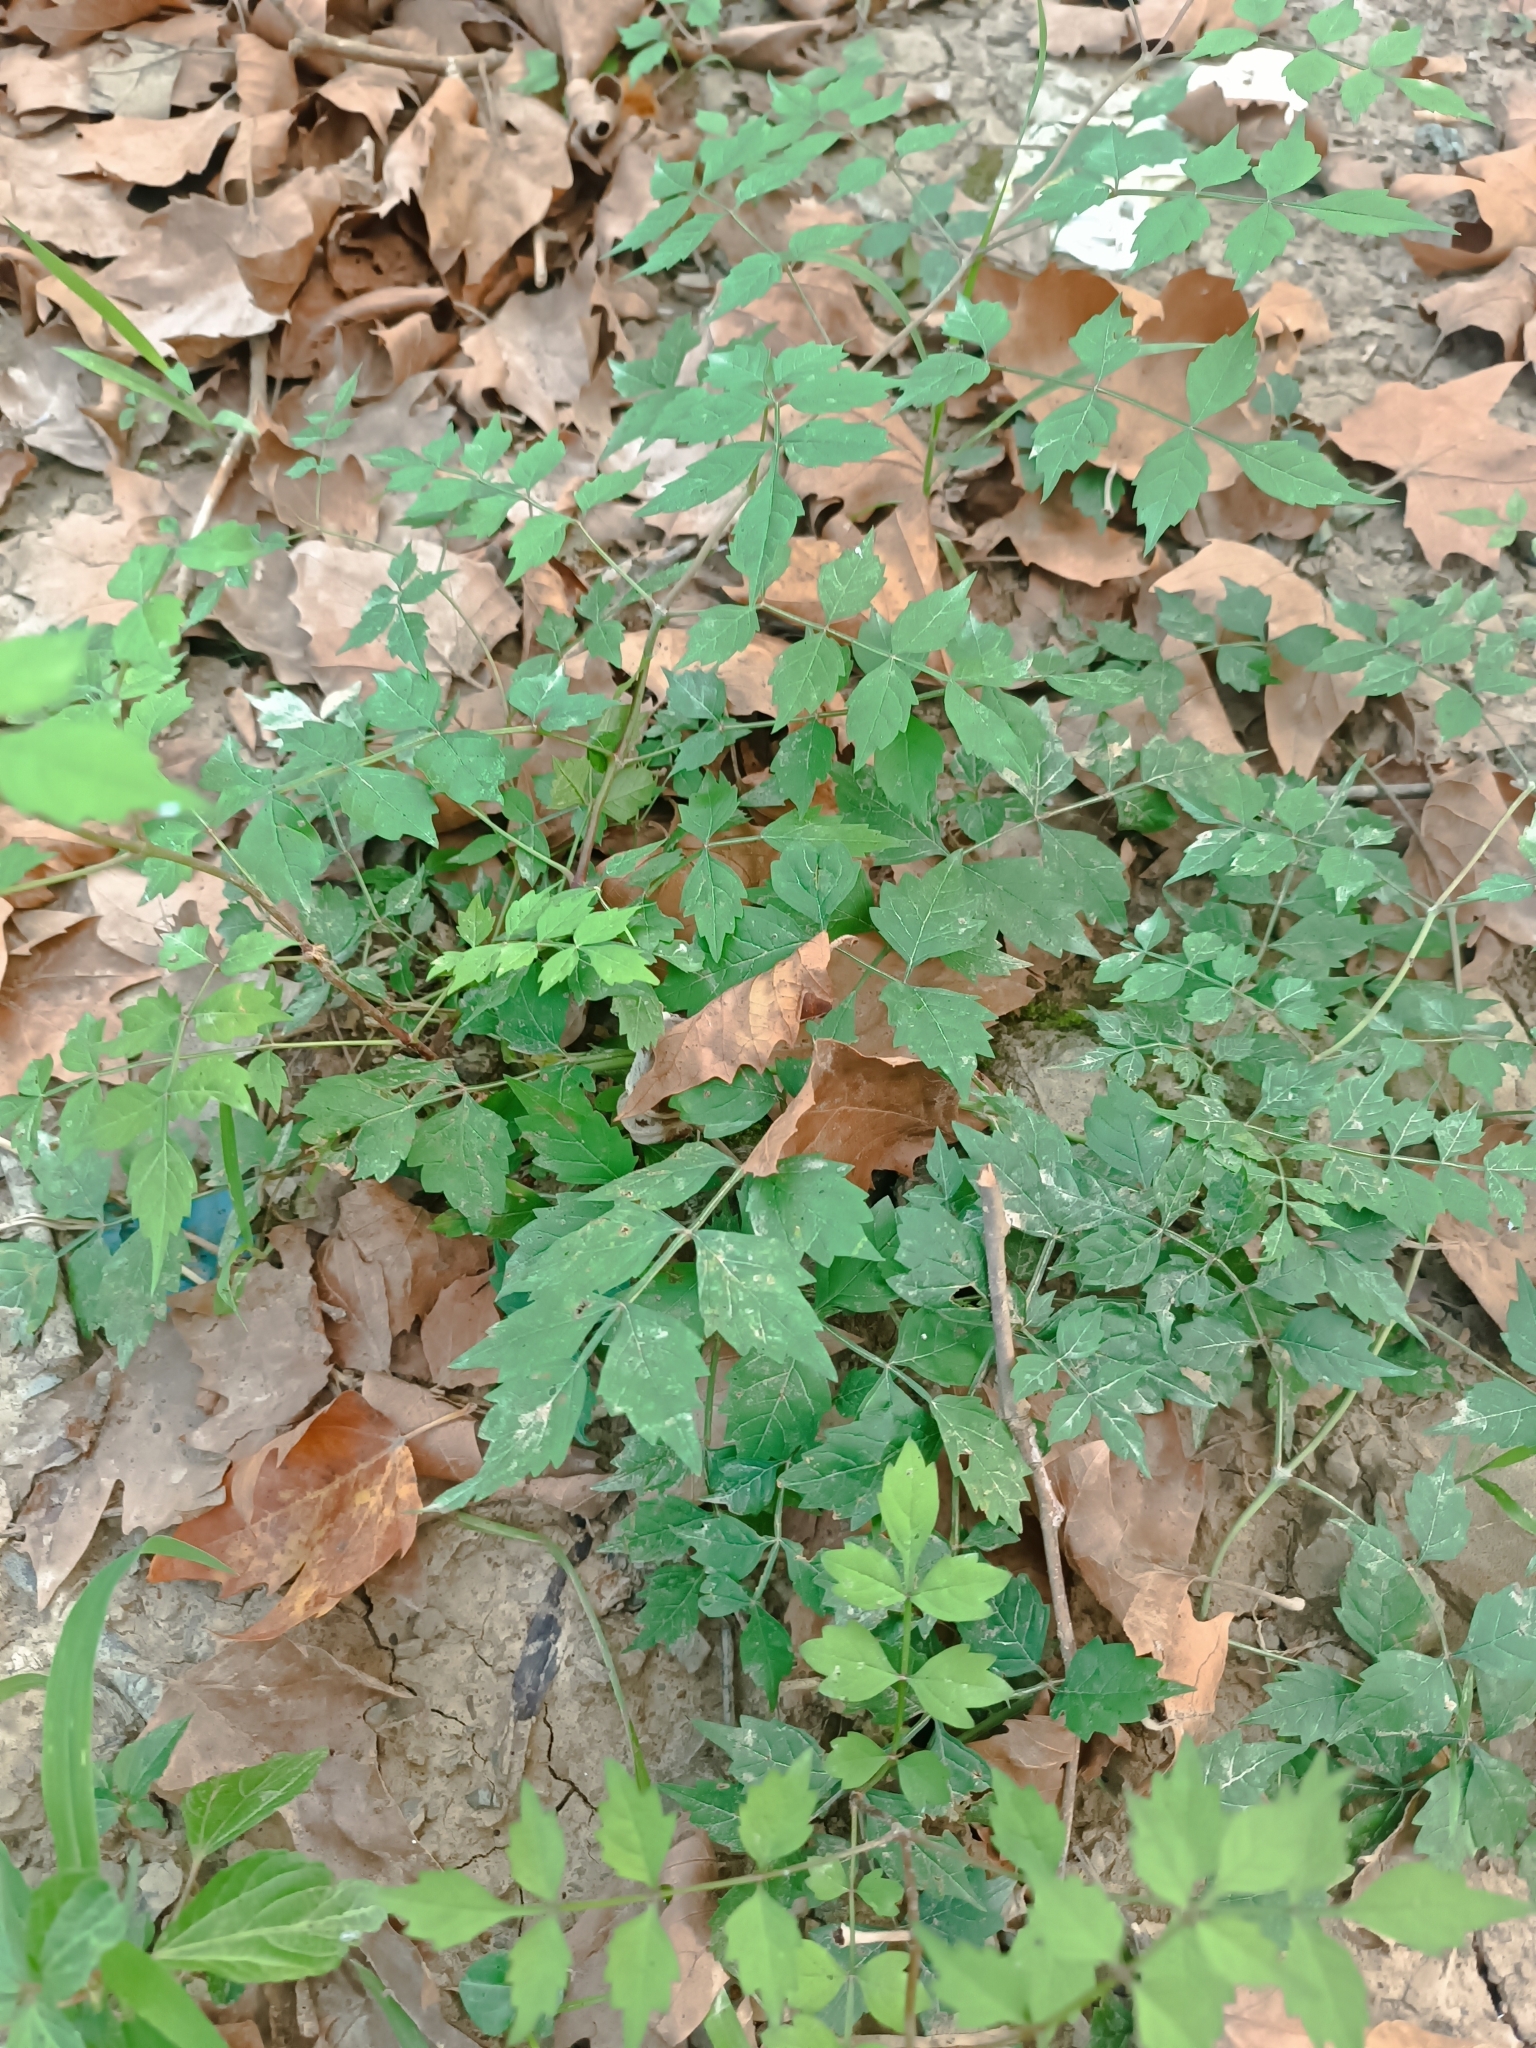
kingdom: Plantae
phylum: Tracheophyta
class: Magnoliopsida
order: Lamiales
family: Bignoniaceae
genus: Campsis
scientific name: Campsis radicans
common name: Trumpet-creeper
